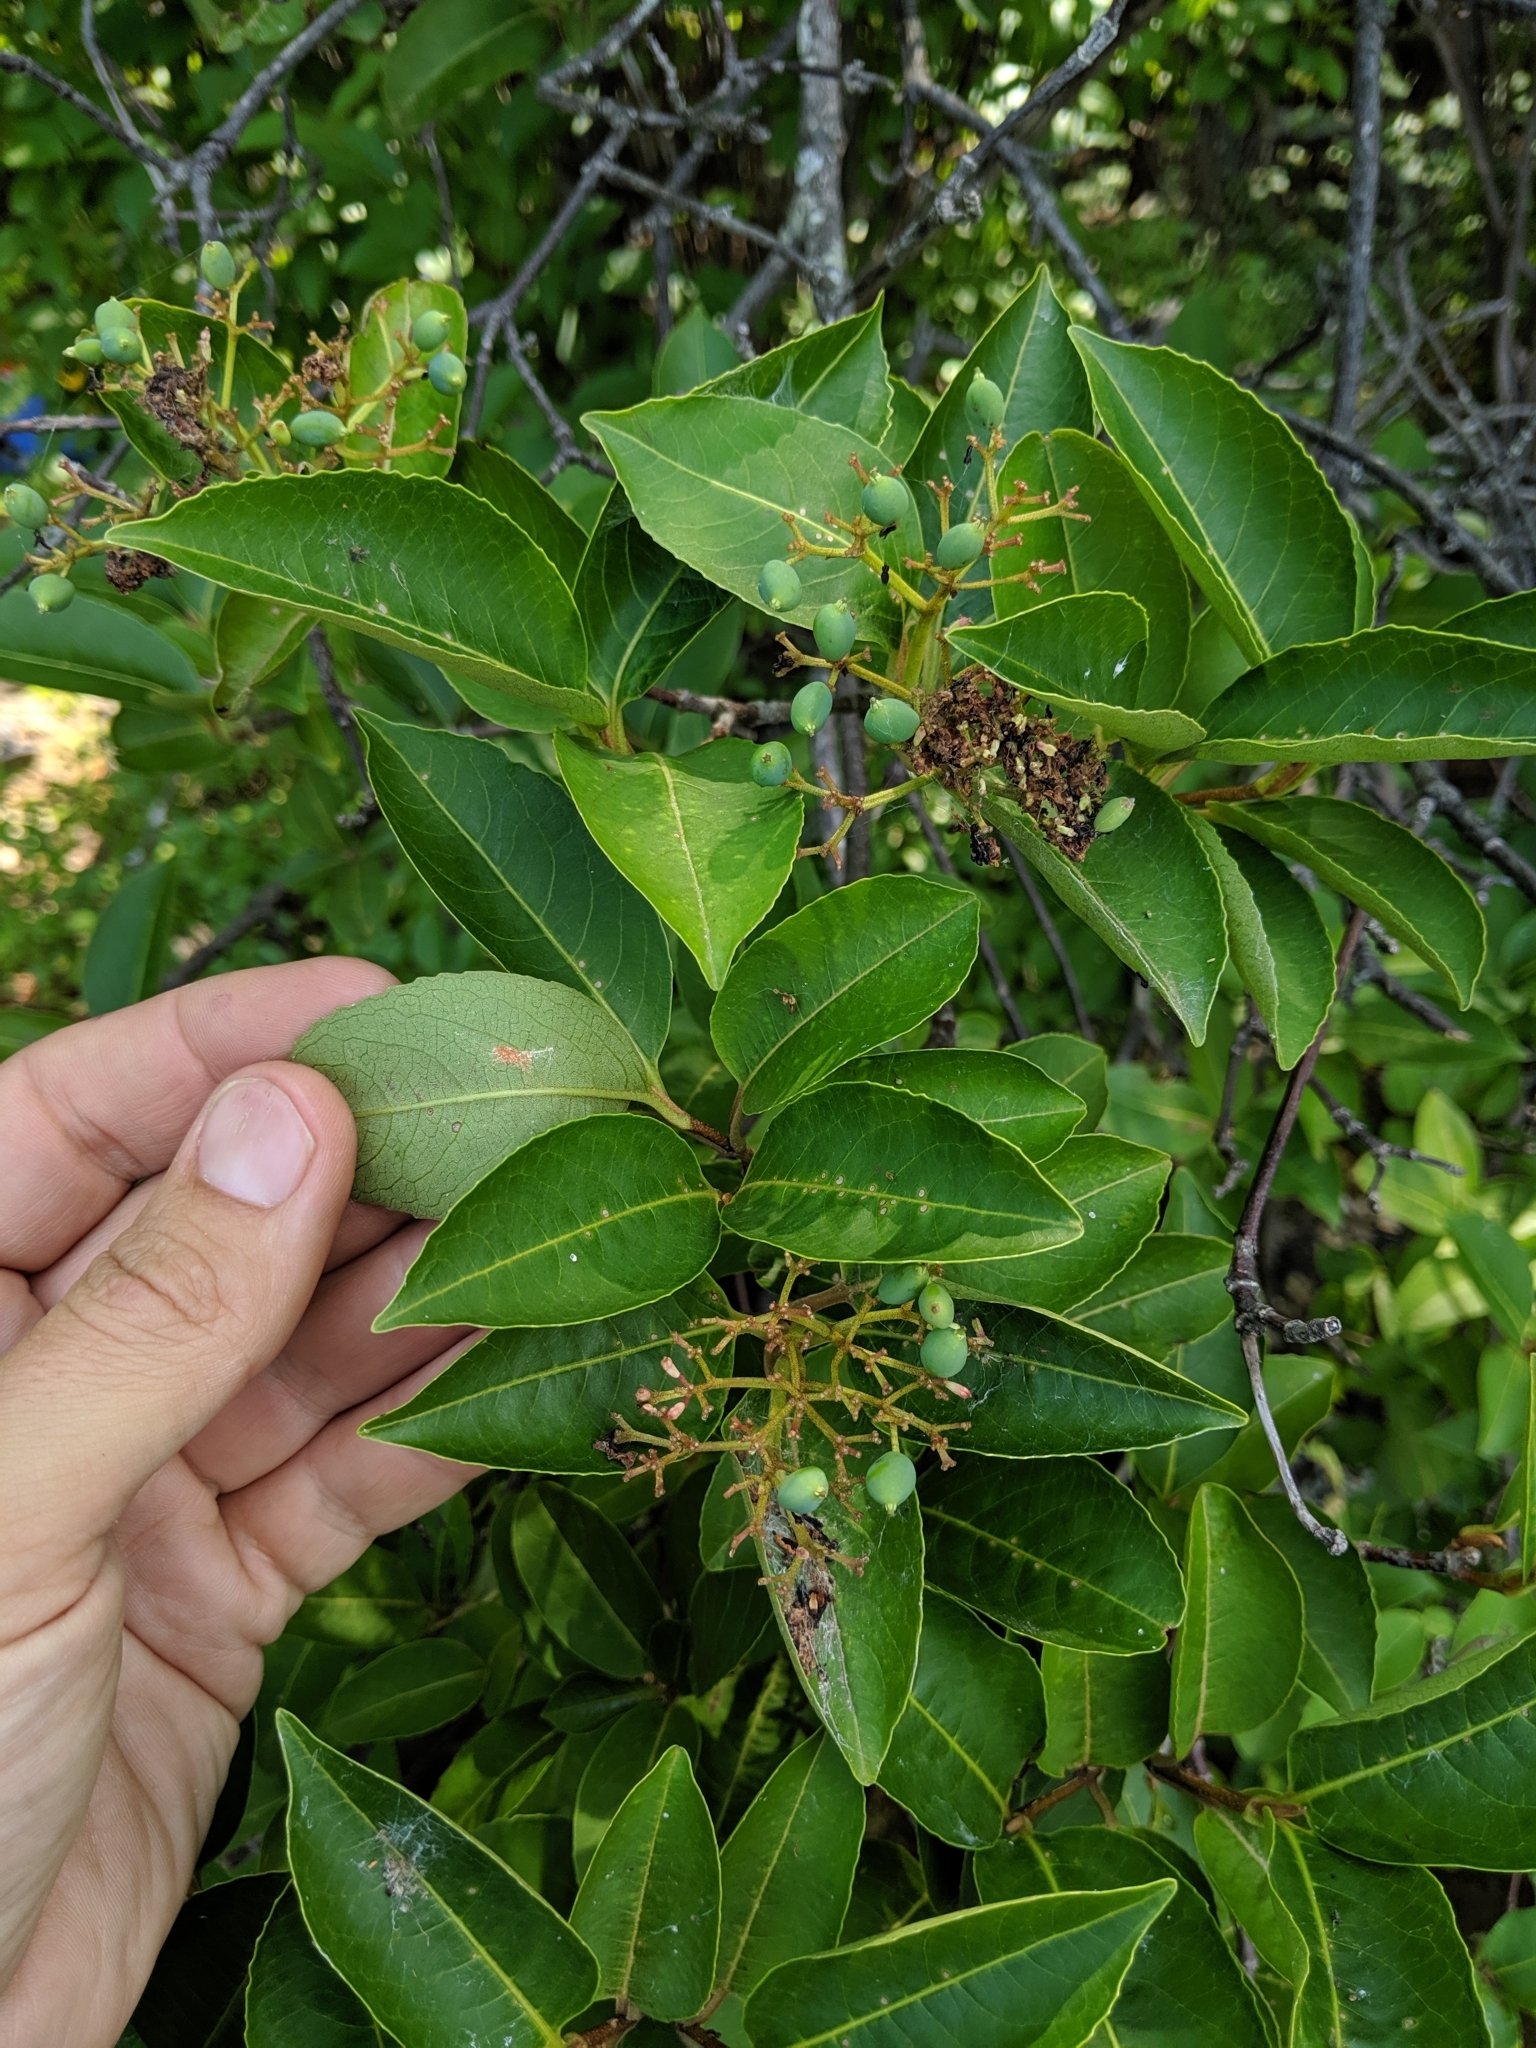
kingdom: Plantae
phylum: Tracheophyta
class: Magnoliopsida
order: Dipsacales
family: Viburnaceae
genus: Viburnum
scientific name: Viburnum cassinoides
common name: Swamp haw
